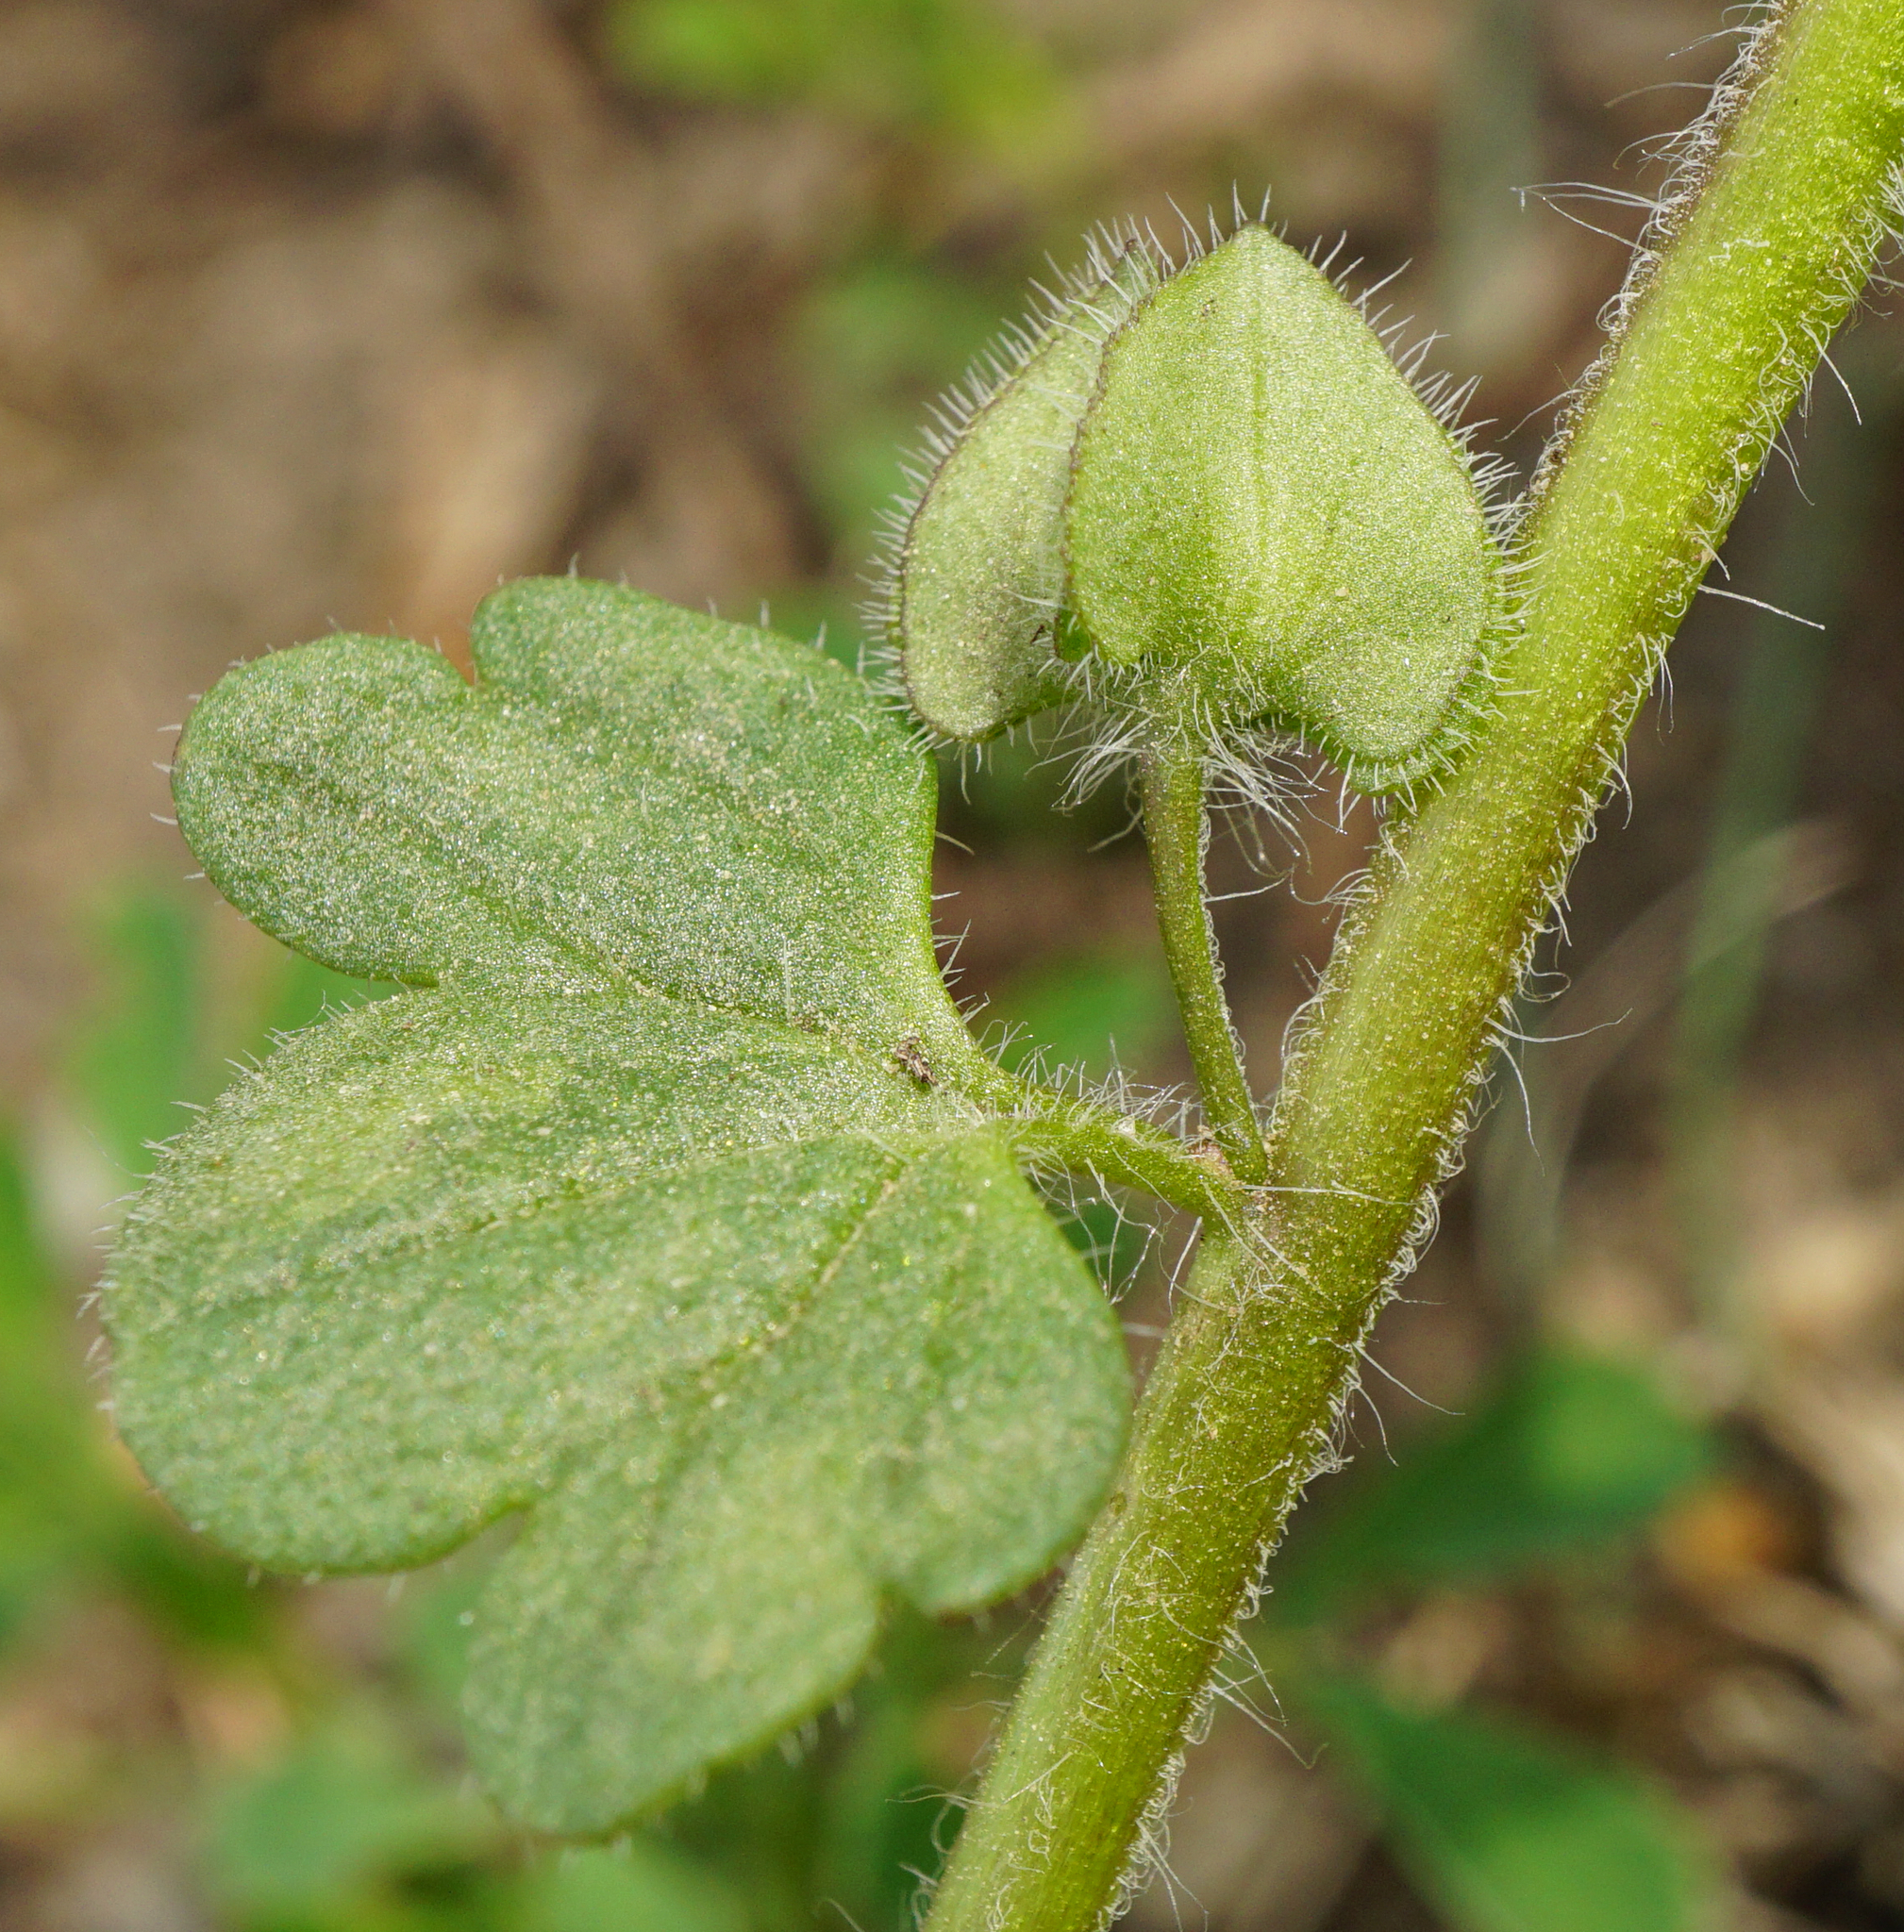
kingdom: Plantae
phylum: Tracheophyta
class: Magnoliopsida
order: Lamiales
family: Plantaginaceae
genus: Veronica
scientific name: Veronica triloba
